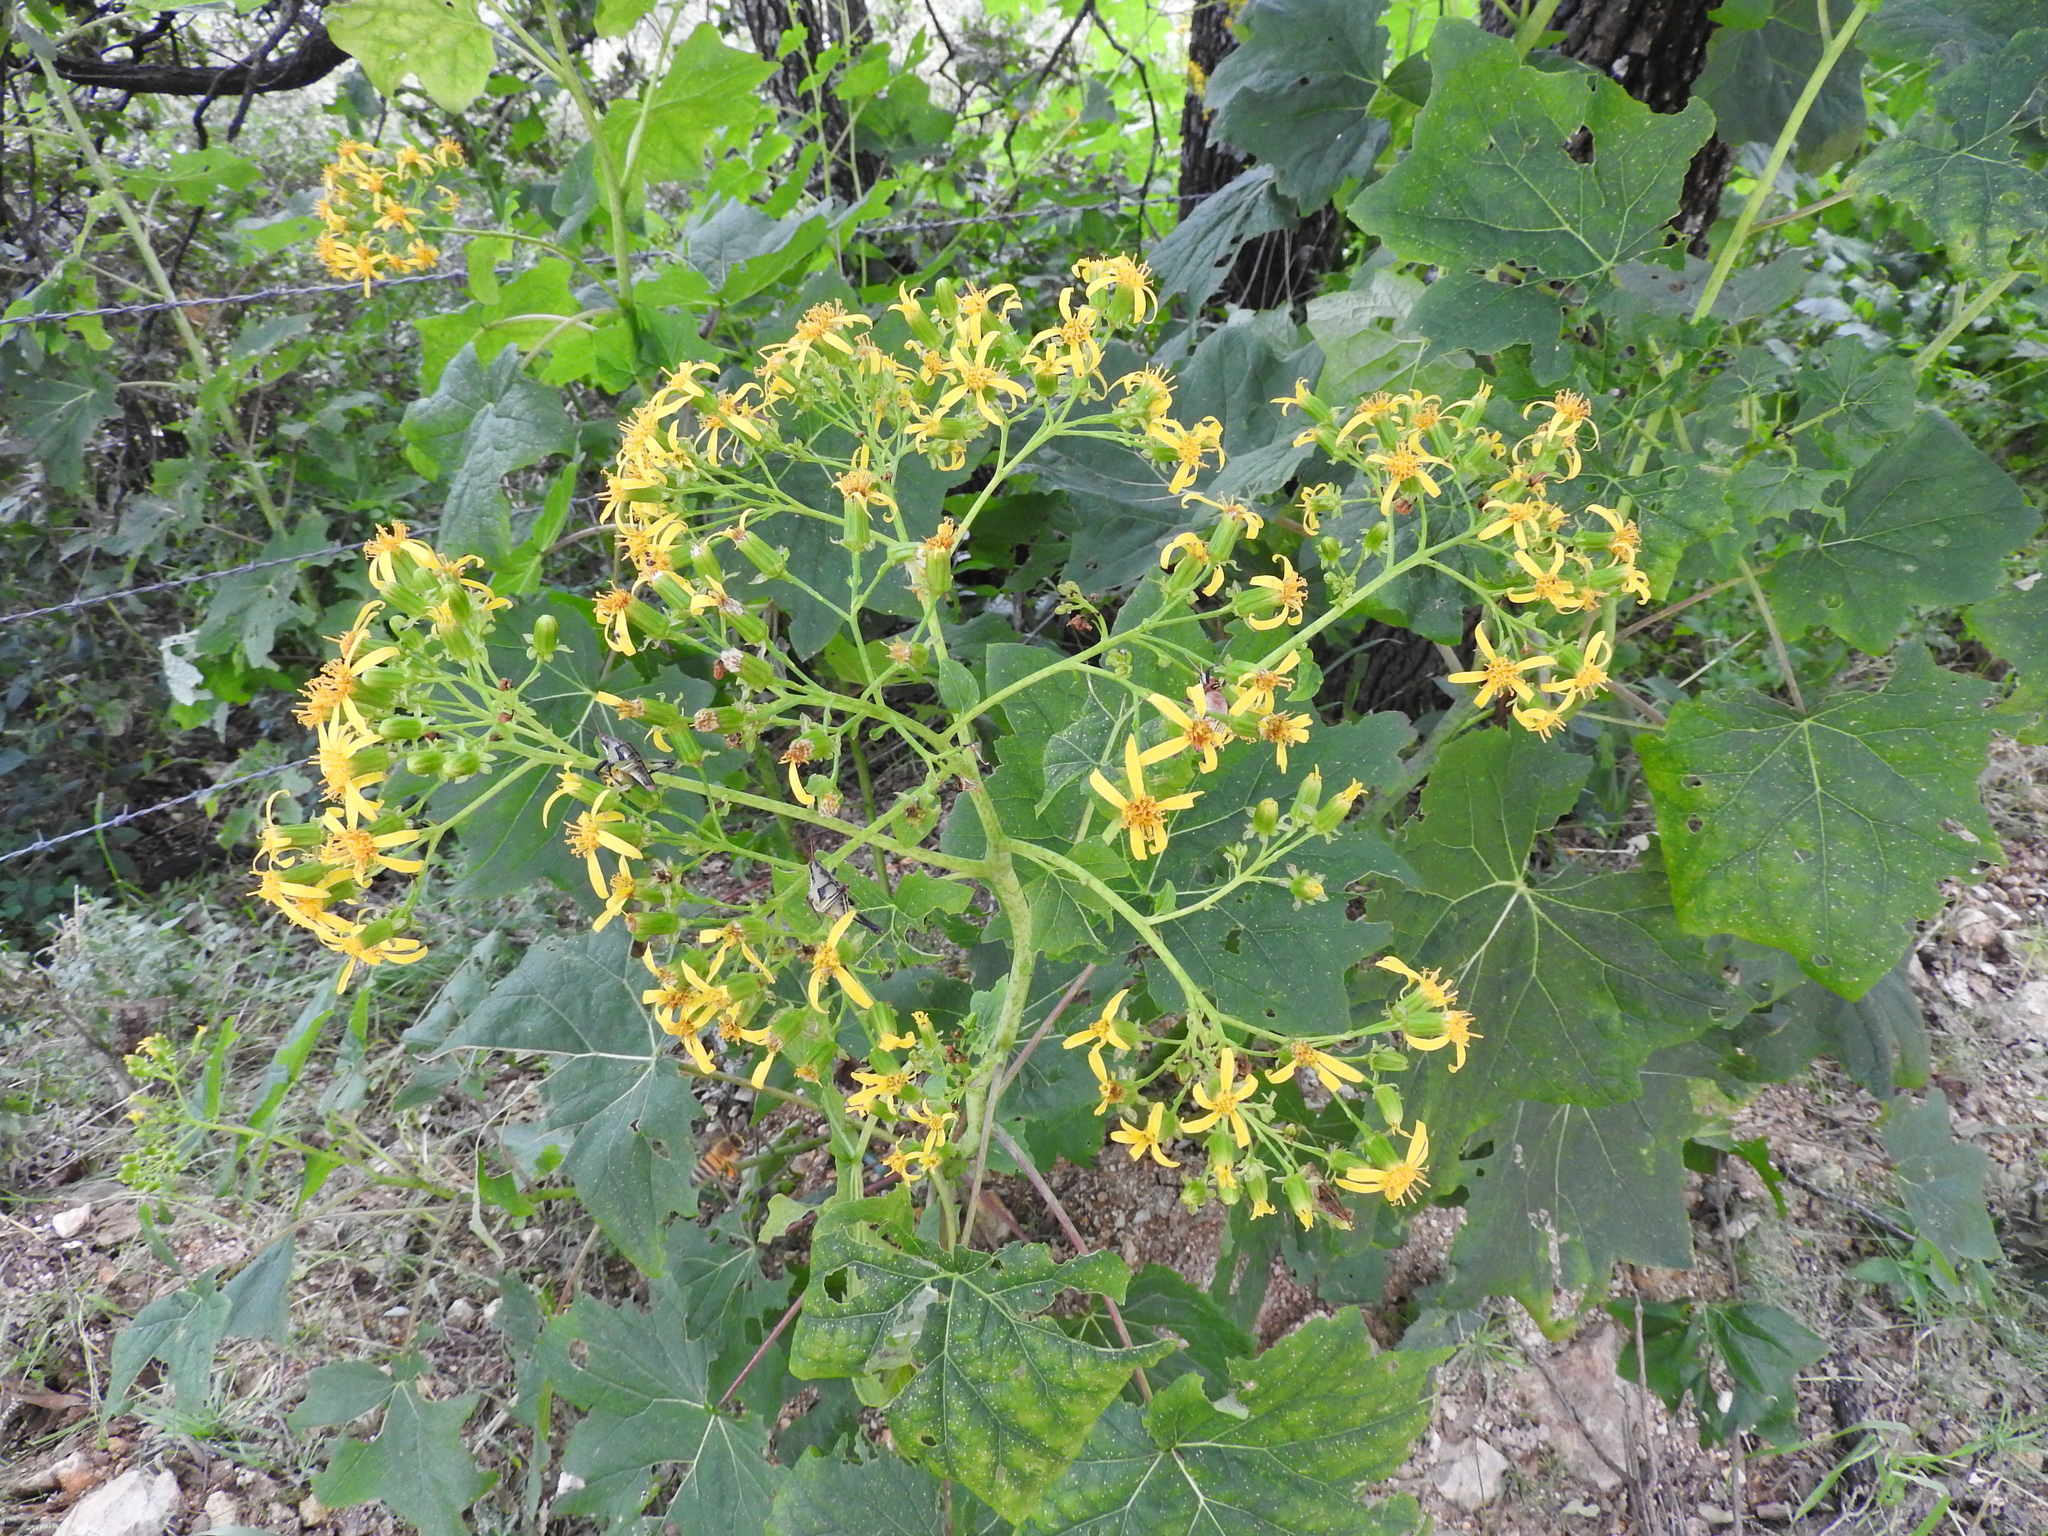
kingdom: Plantae
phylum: Tracheophyta
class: Magnoliopsida
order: Asterales
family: Asteraceae
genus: Roldana
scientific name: Roldana angulifolia
